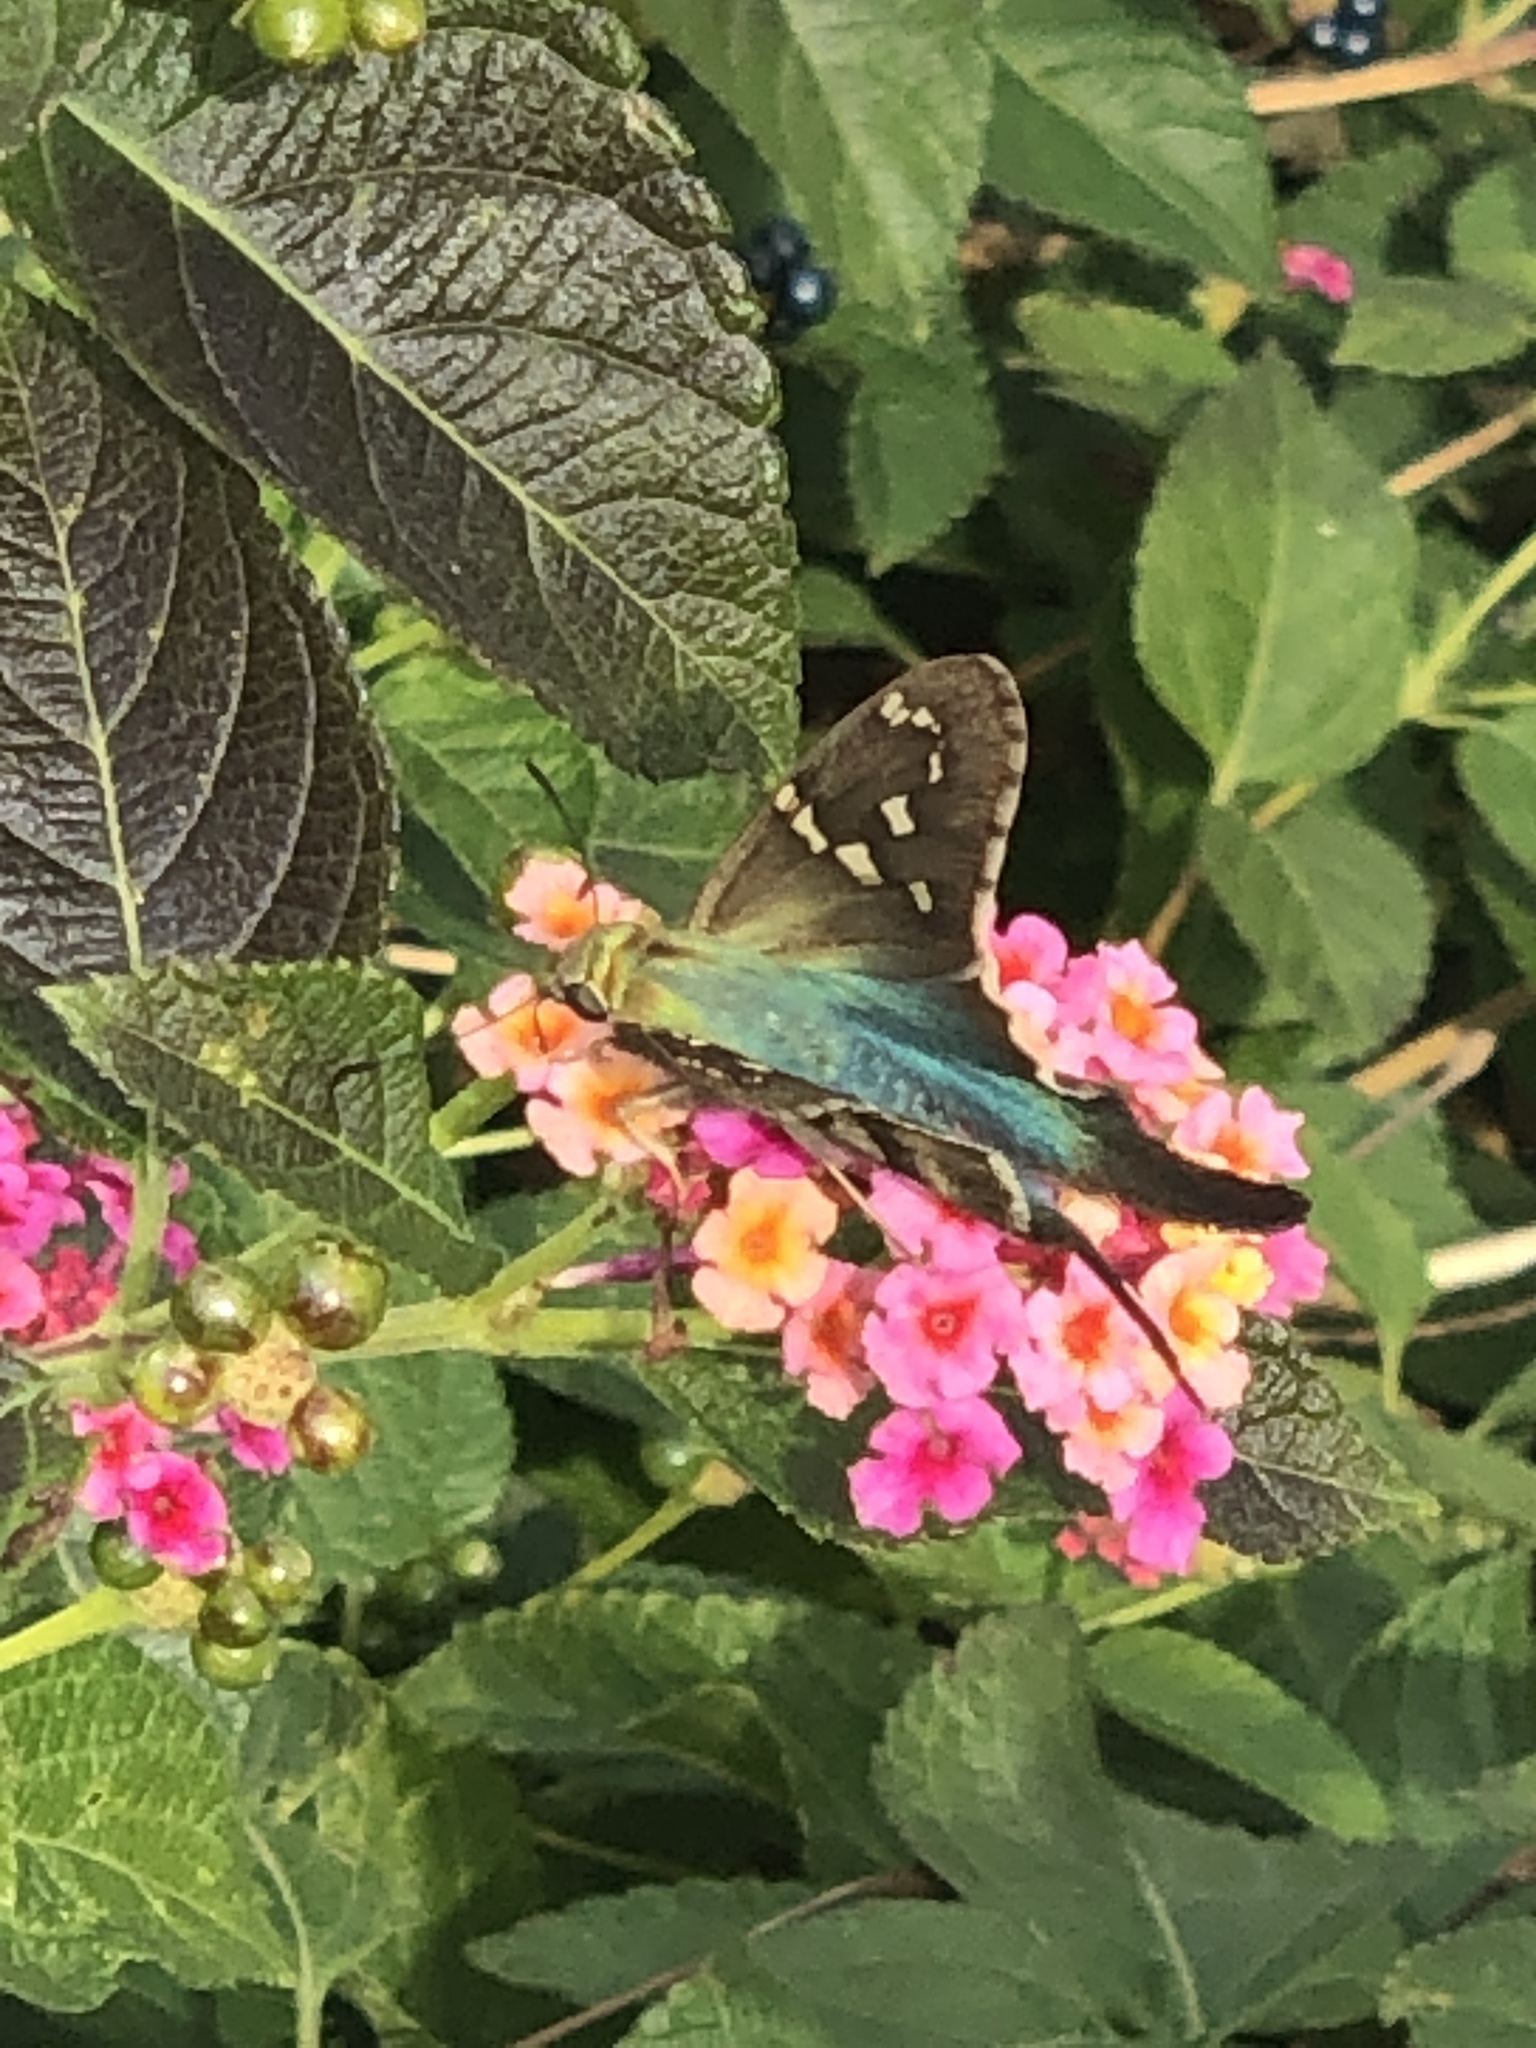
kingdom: Animalia
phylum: Arthropoda
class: Insecta
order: Lepidoptera
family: Hesperiidae
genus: Urbanus
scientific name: Urbanus proteus
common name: Long-tailed skipper
